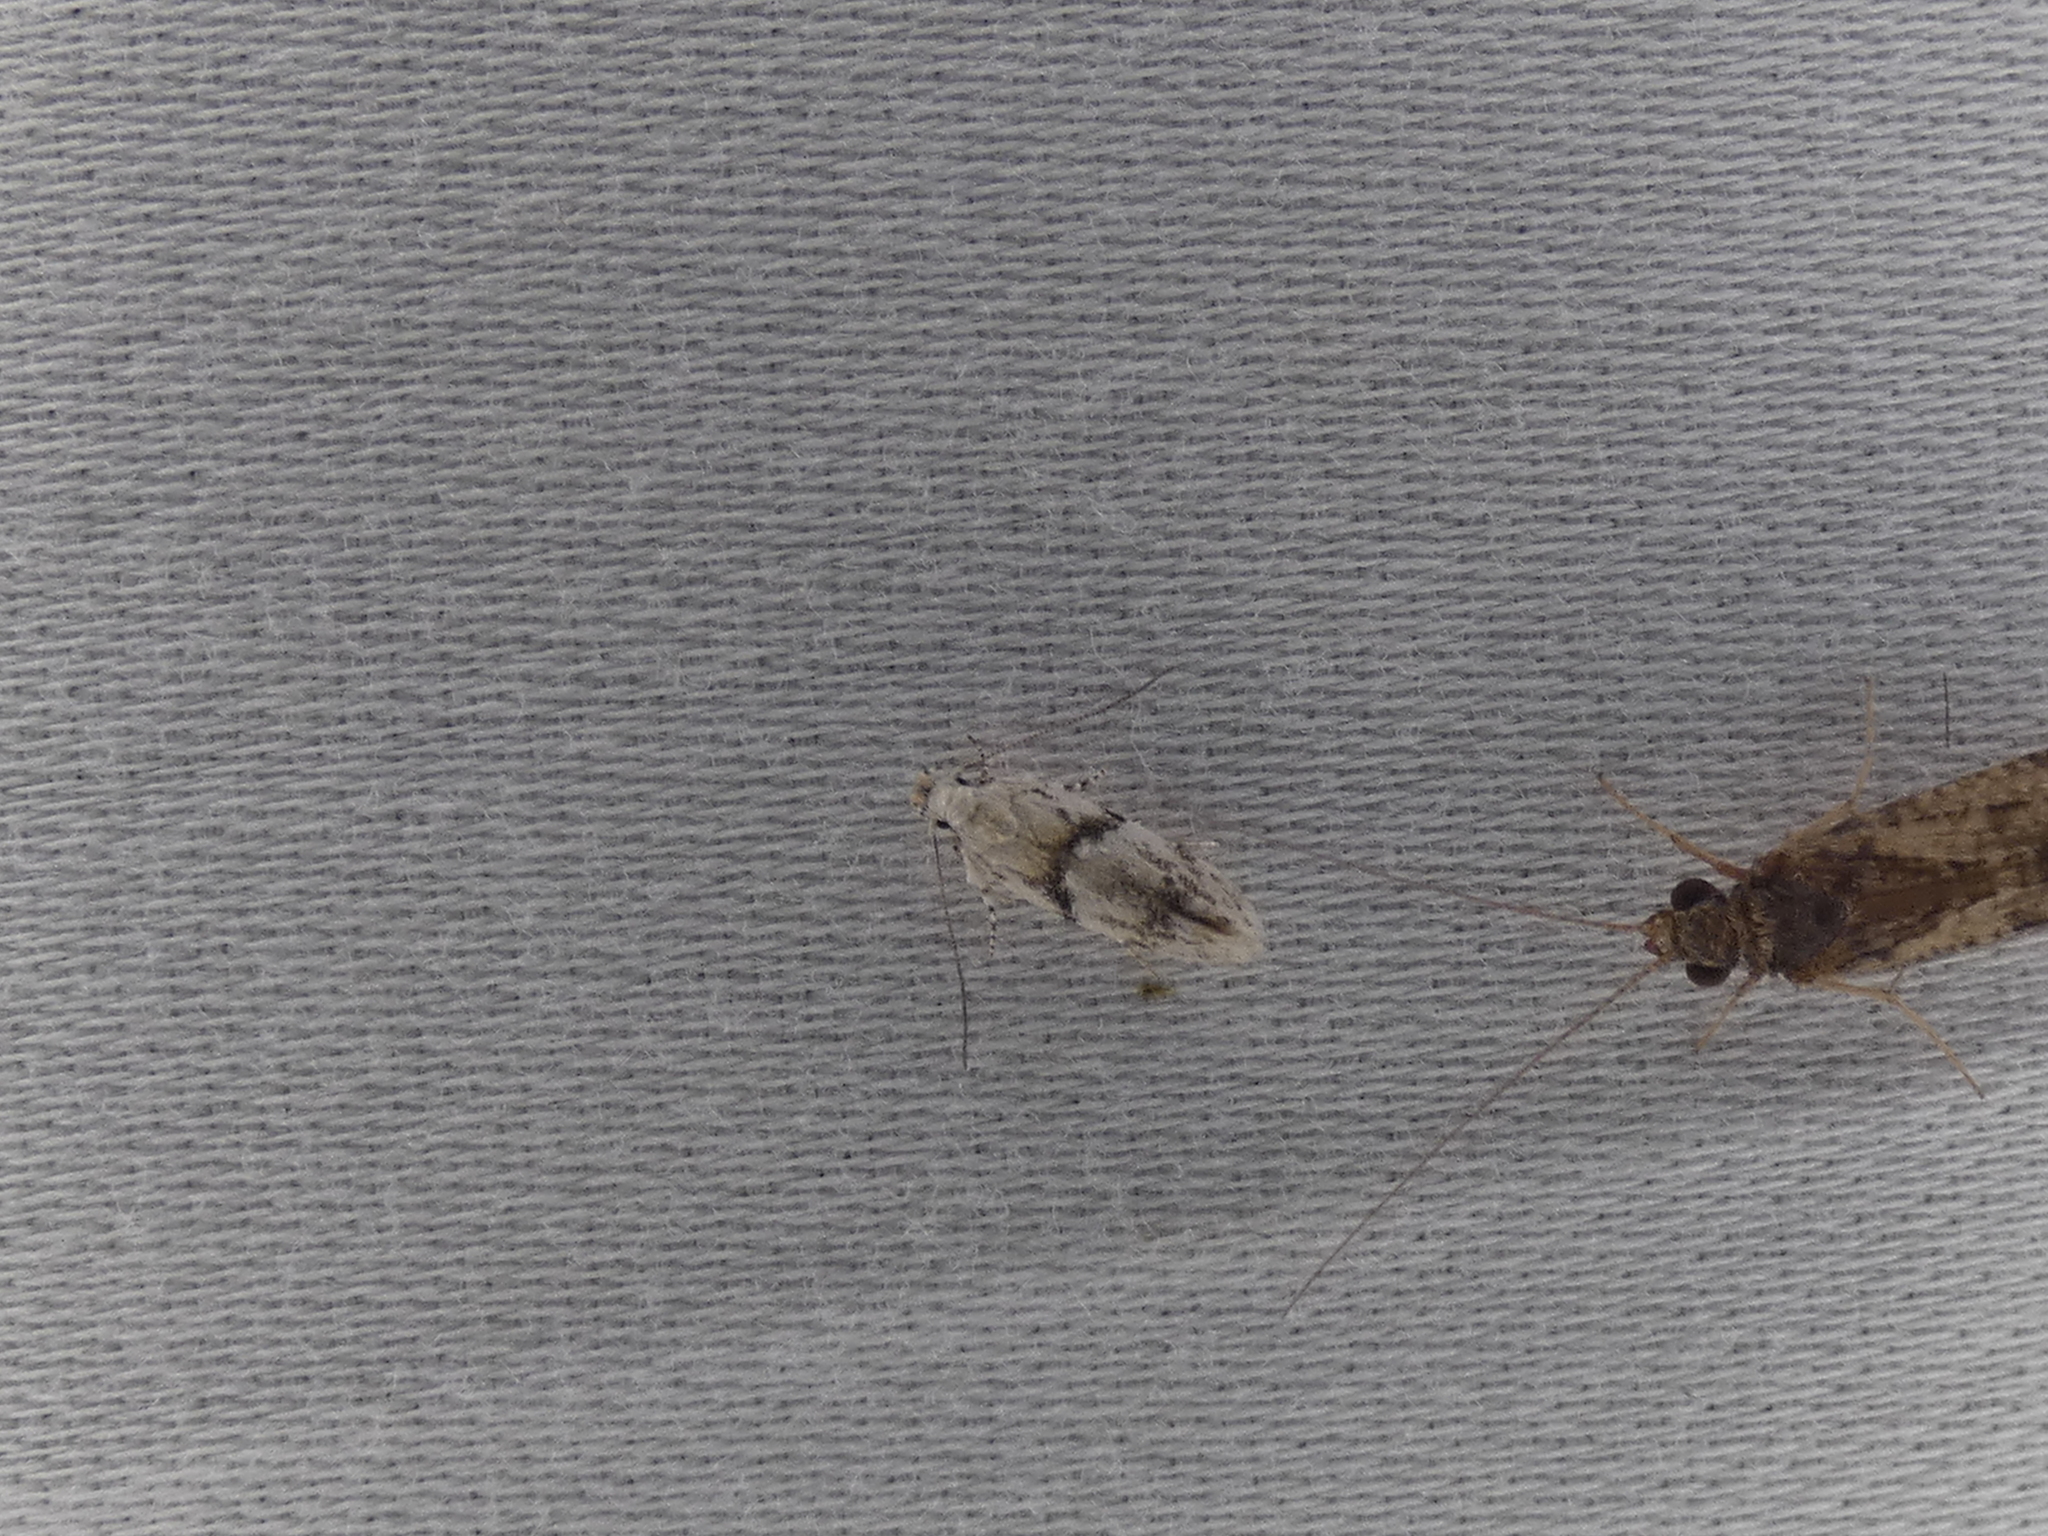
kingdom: Animalia
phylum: Arthropoda
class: Insecta
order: Lepidoptera
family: Gelechiidae
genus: Arogalea
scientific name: Arogalea cristifasciella
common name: White stripe-backed moth
